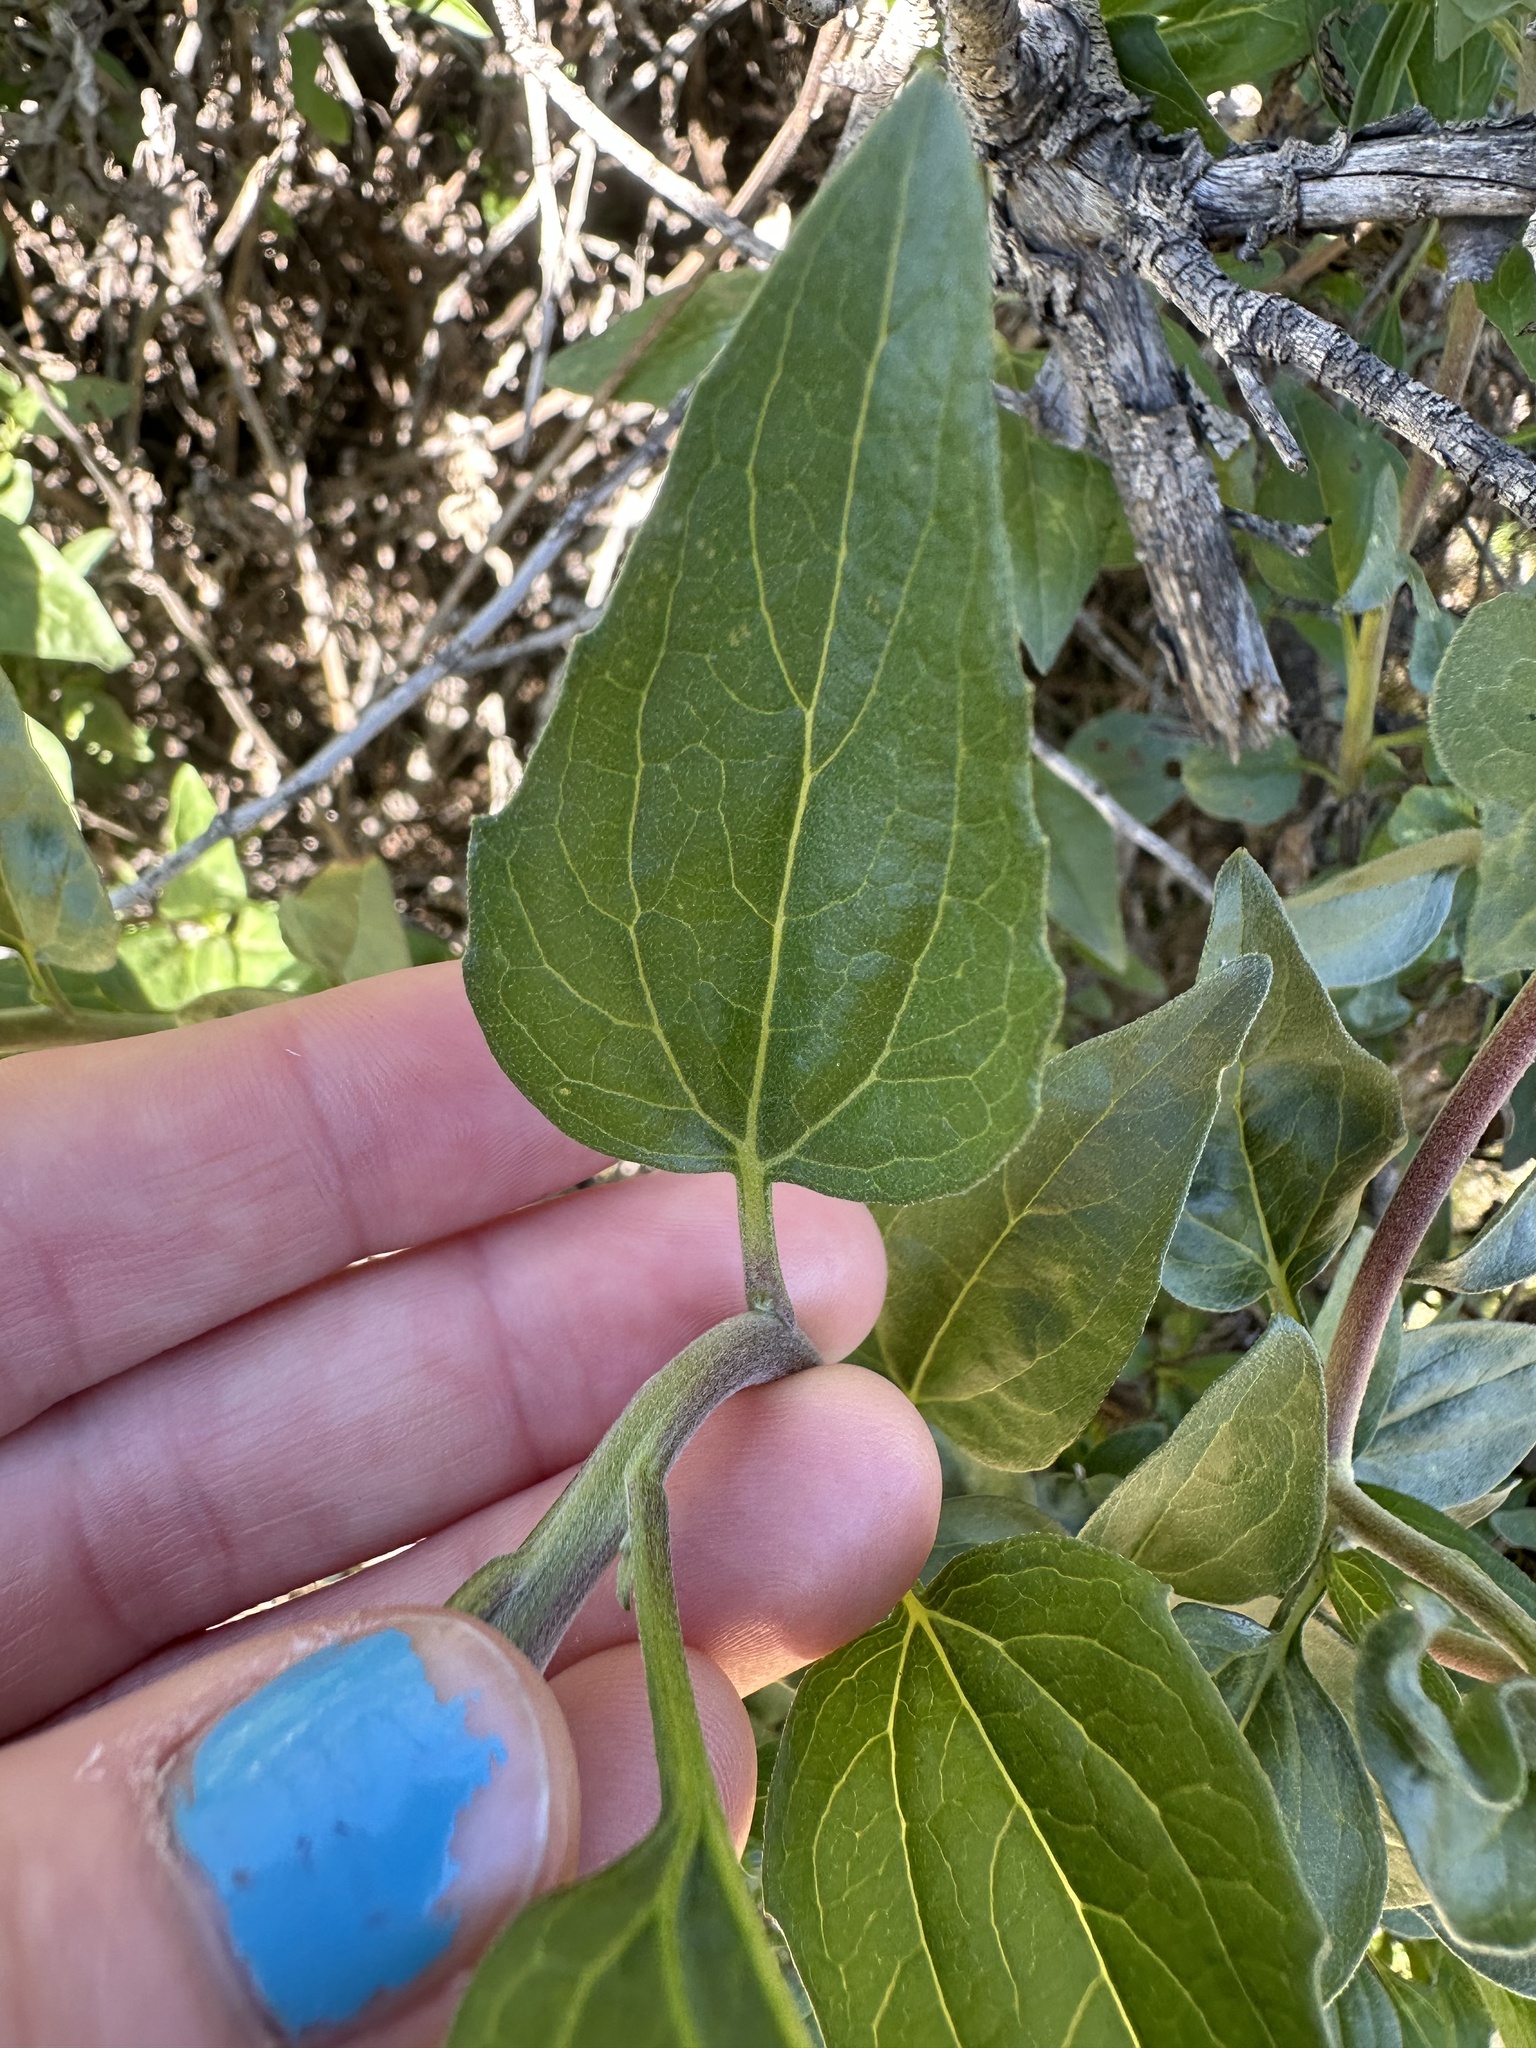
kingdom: Plantae
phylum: Tracheophyta
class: Magnoliopsida
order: Asterales
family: Asteraceae
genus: Encelia
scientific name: Encelia californica
